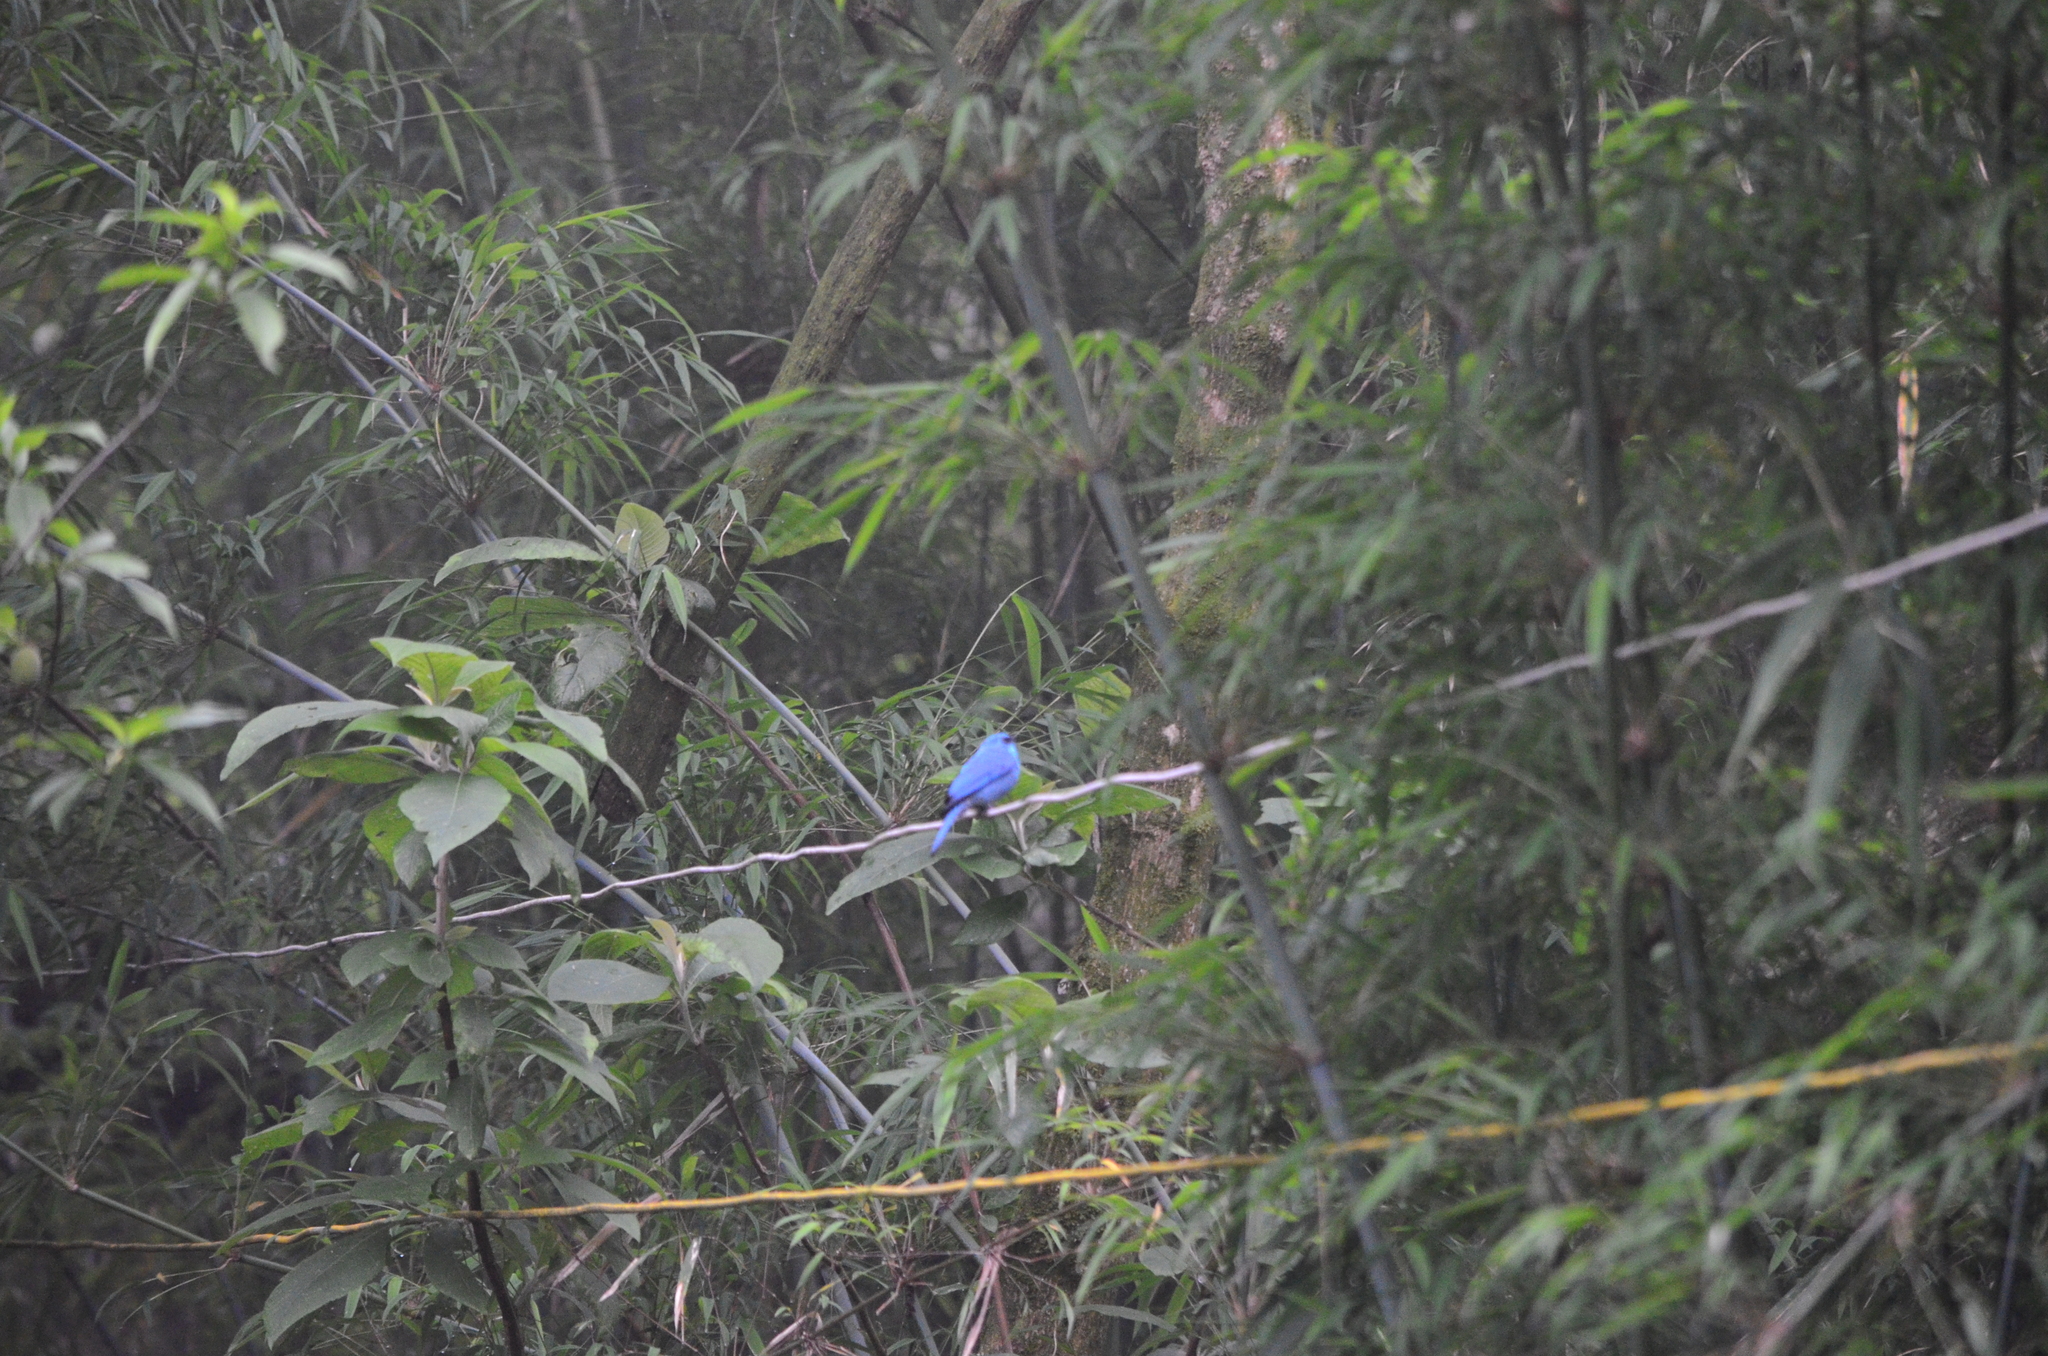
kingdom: Animalia
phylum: Chordata
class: Aves
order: Passeriformes
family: Muscicapidae
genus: Eumyias
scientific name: Eumyias thalassinus
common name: Verditer flycatcher
